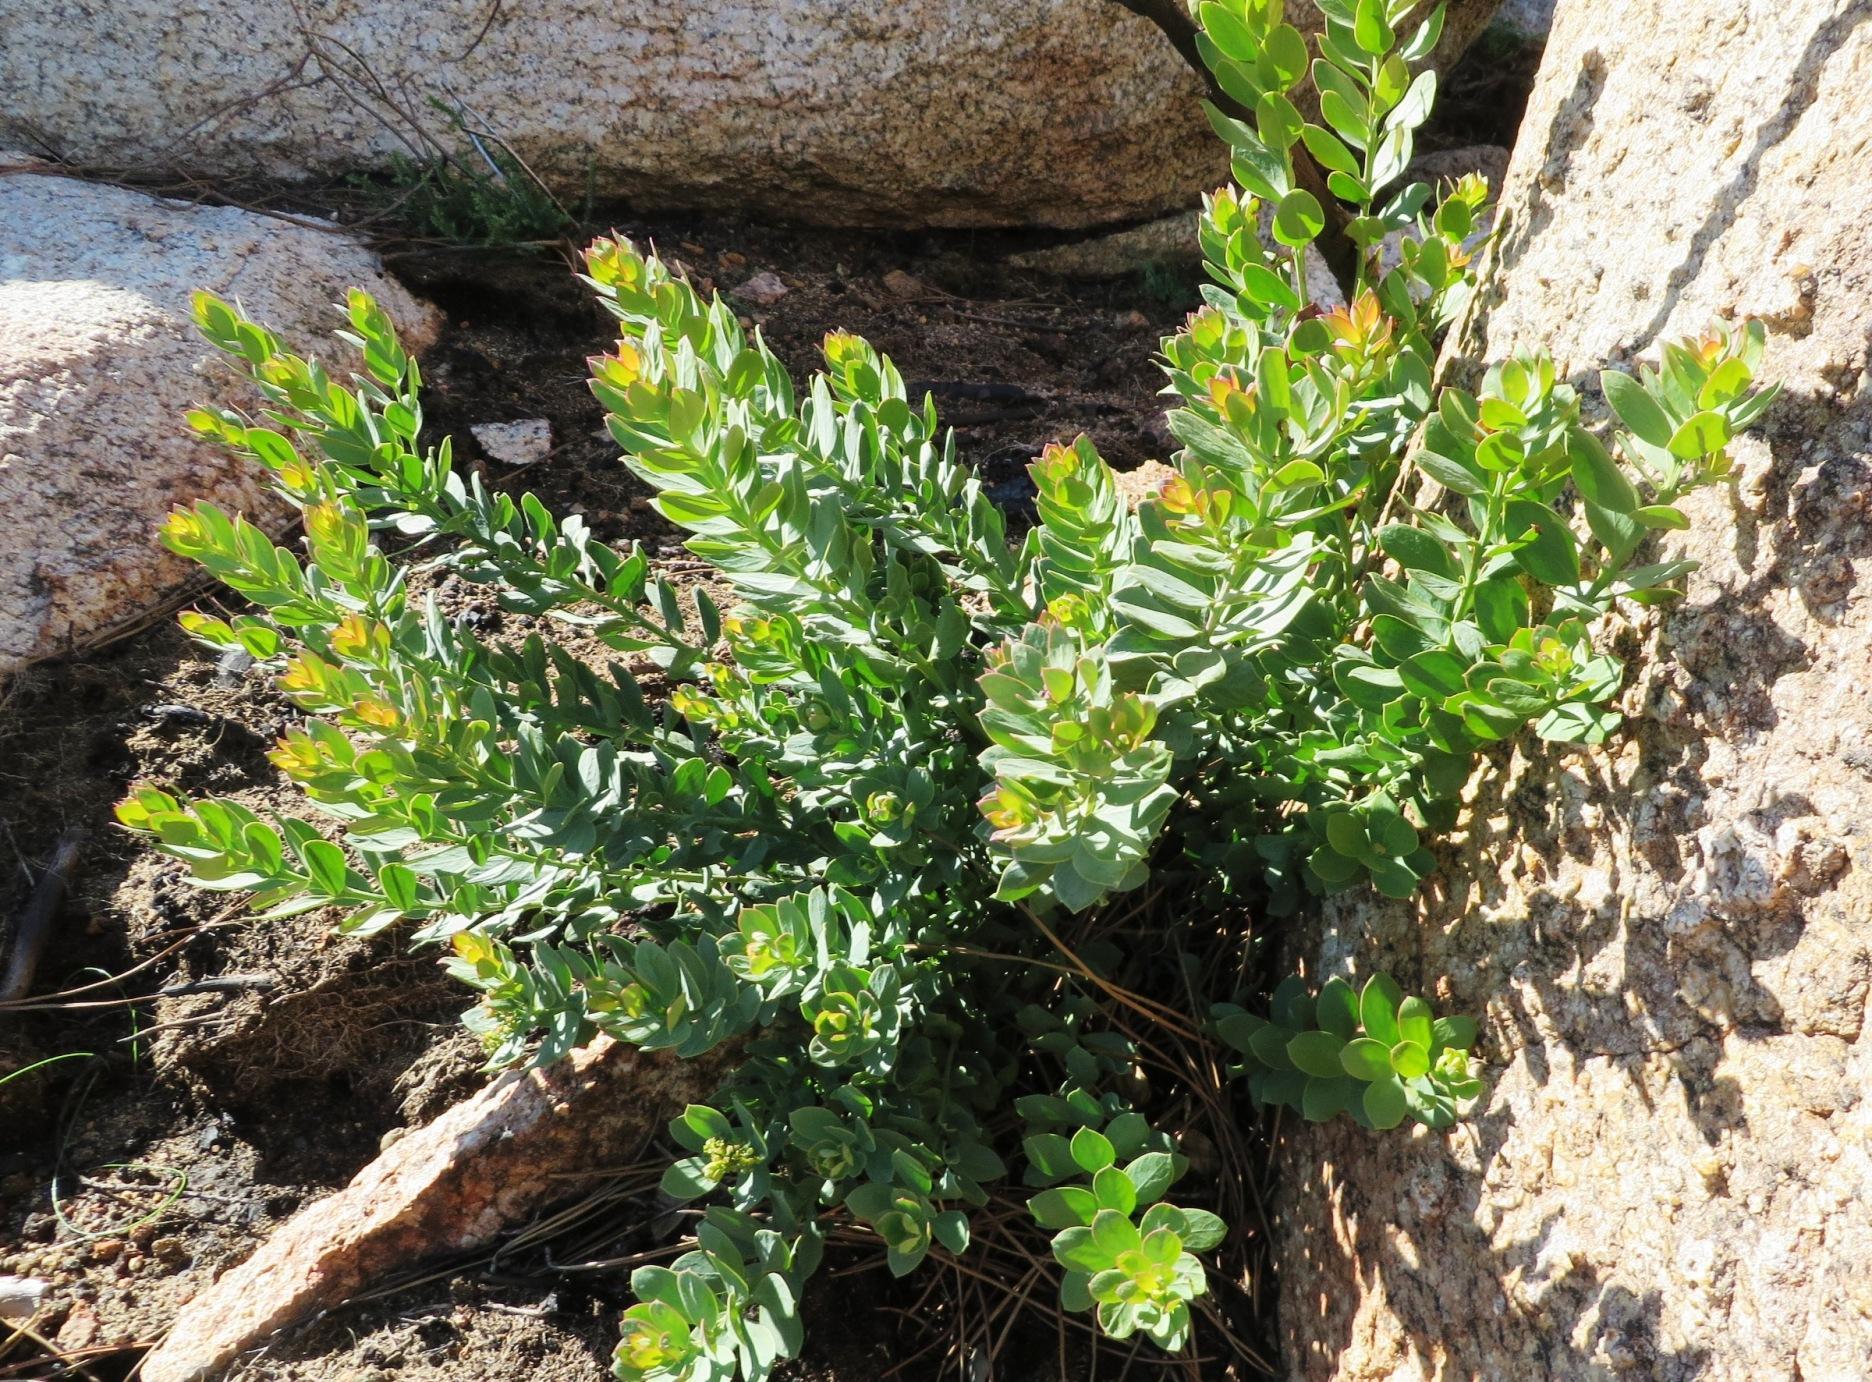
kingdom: Plantae
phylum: Tracheophyta
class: Magnoliopsida
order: Santalales
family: Santalaceae
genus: Osyris
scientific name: Osyris compressa
